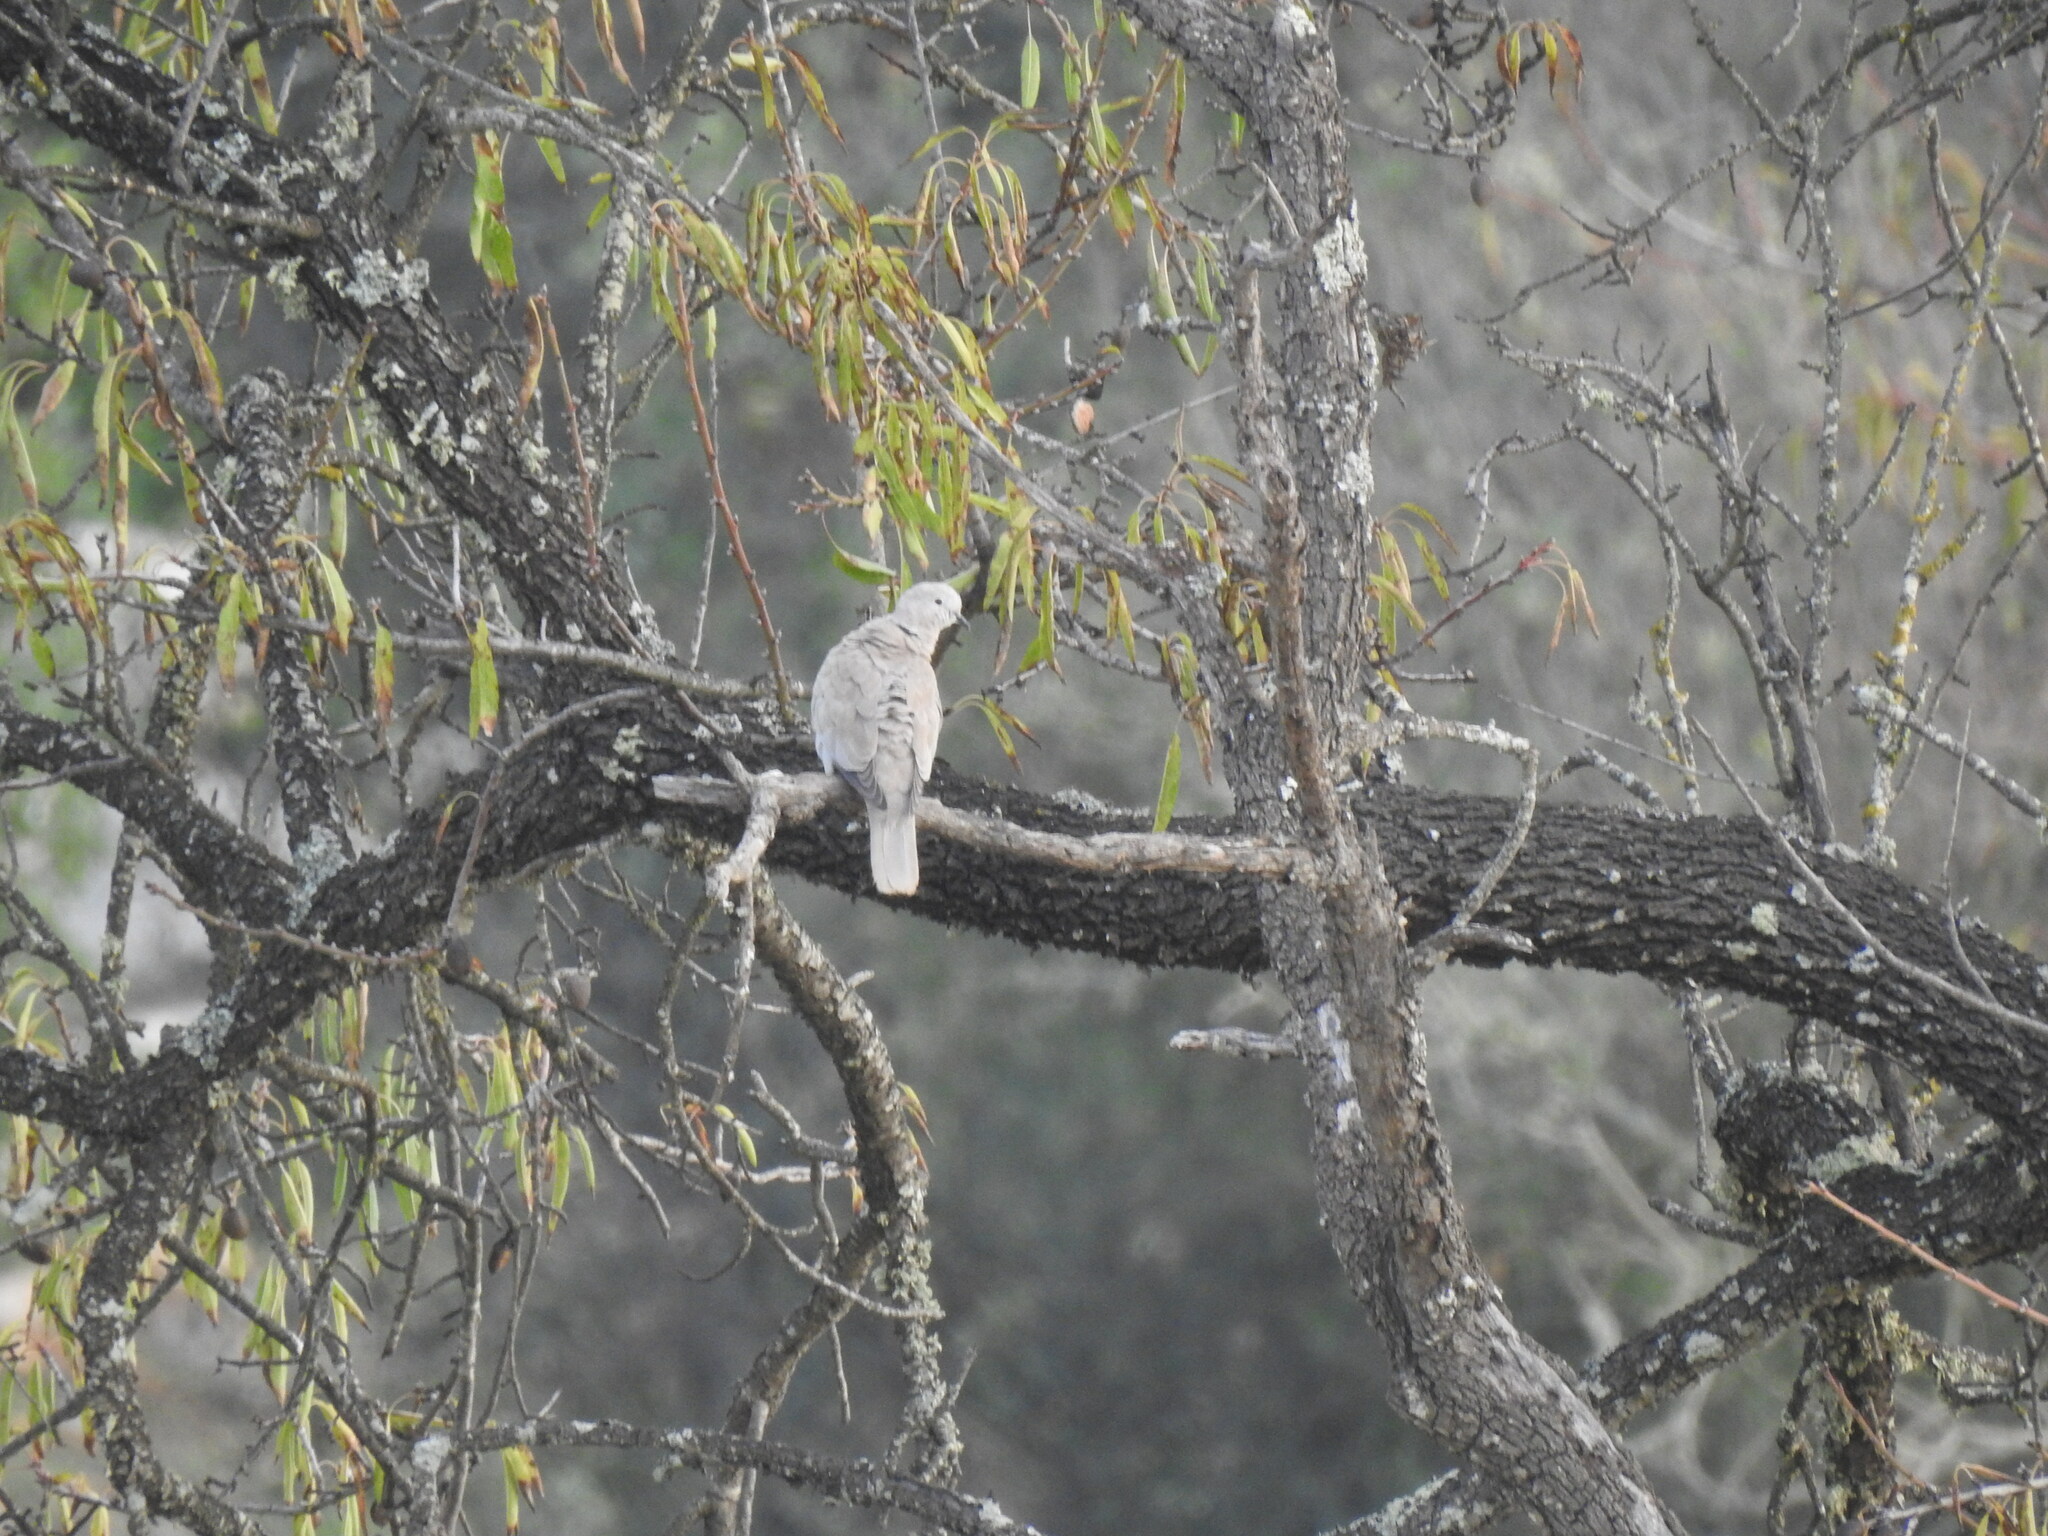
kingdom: Animalia
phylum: Chordata
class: Aves
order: Columbiformes
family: Columbidae
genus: Streptopelia
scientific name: Streptopelia decaocto
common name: Eurasian collared dove
